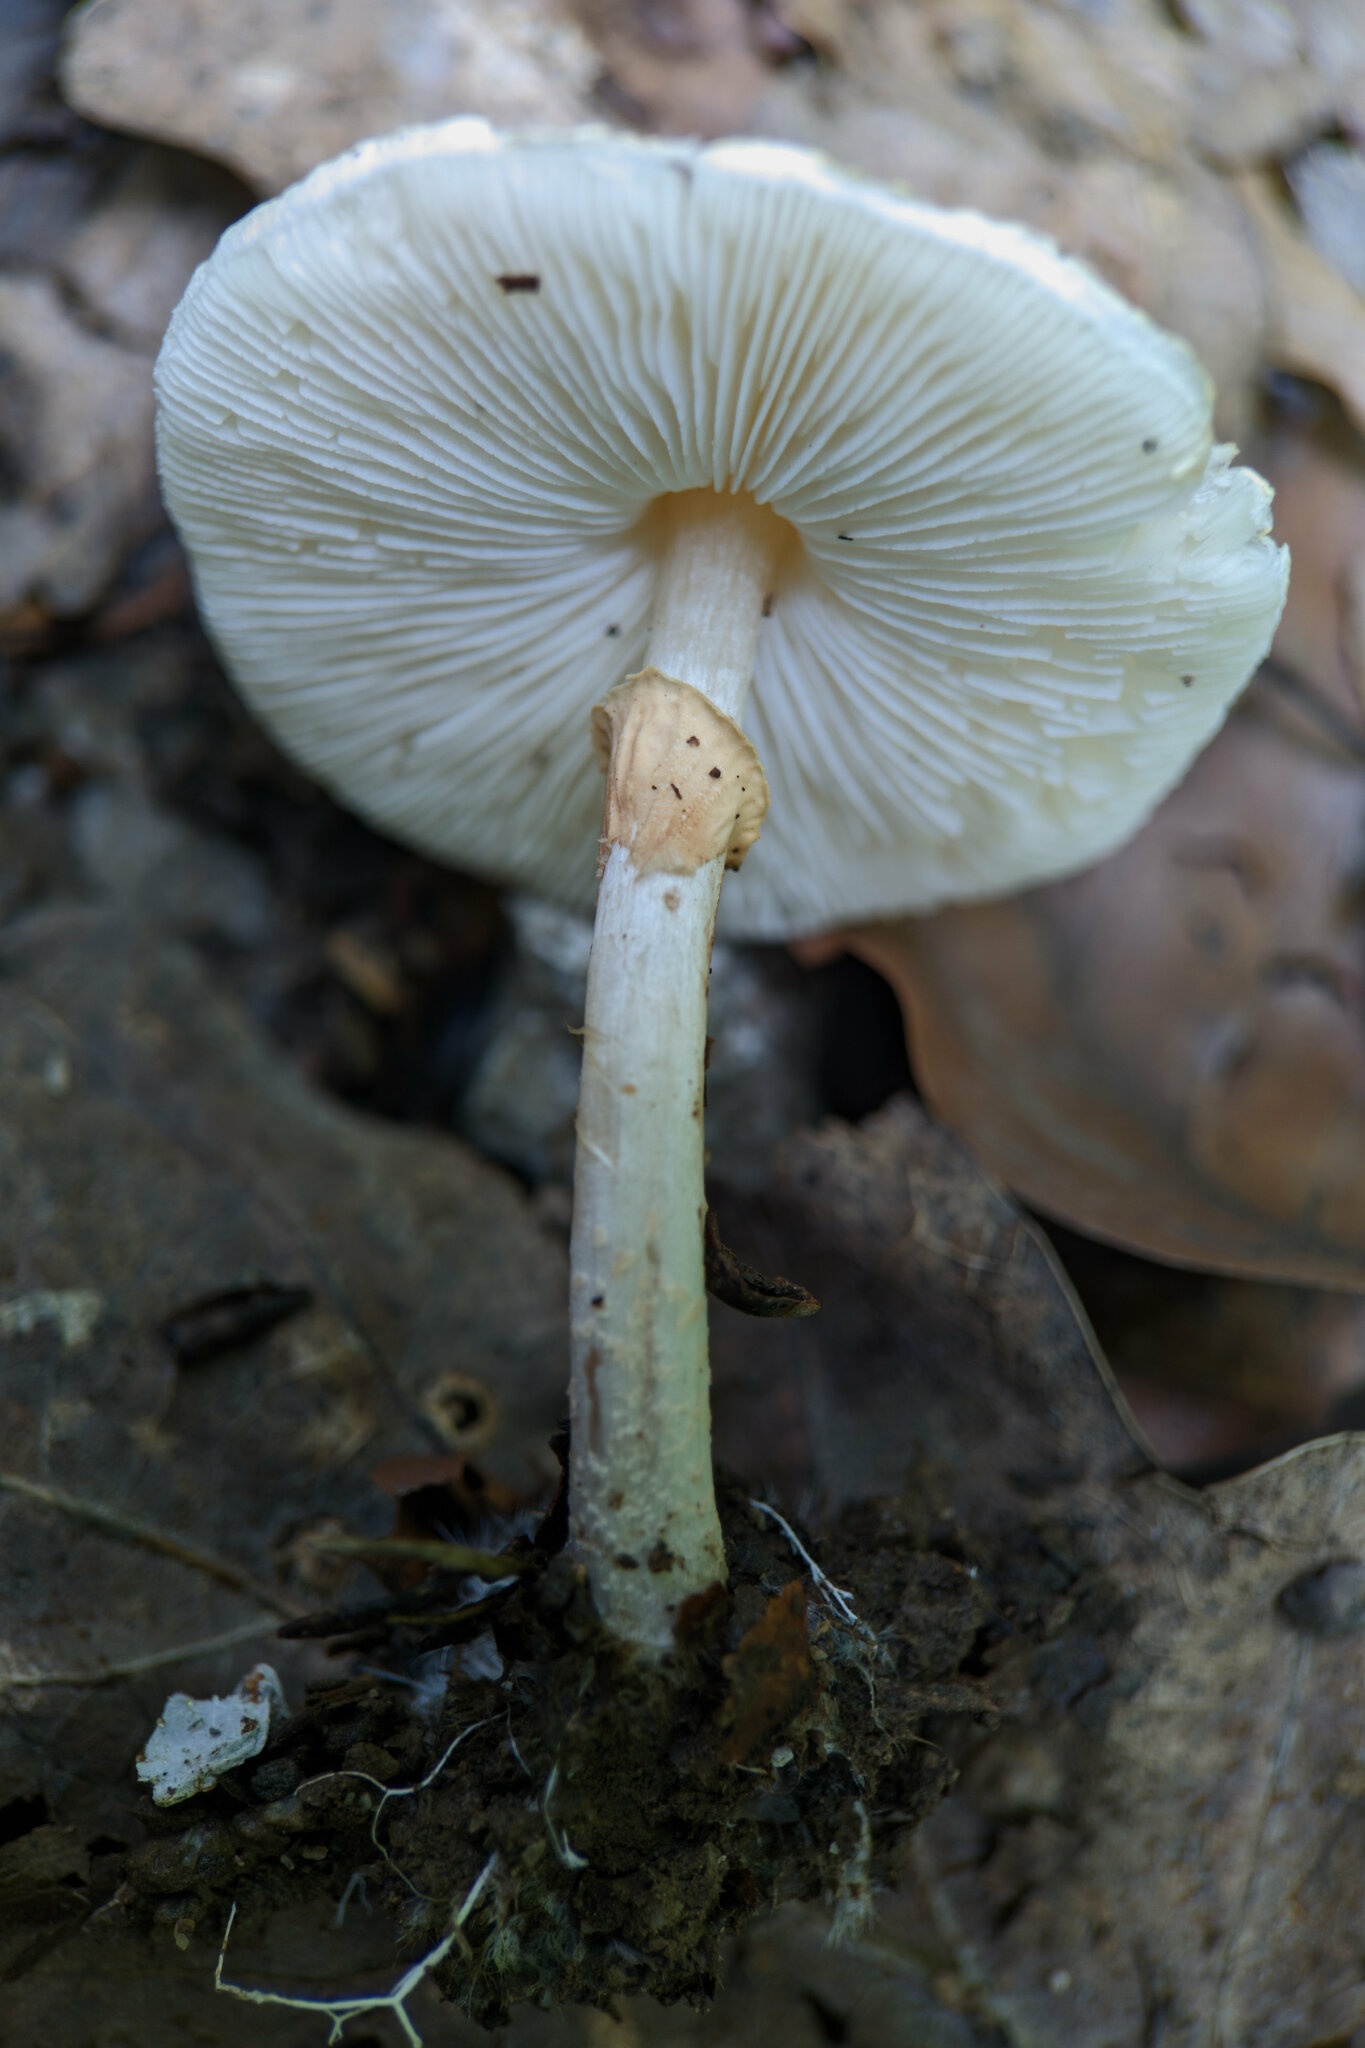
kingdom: Fungi
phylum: Basidiomycota
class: Agaricomycetes
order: Agaricales
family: Agaricaceae
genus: Lepiota
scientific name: Lepiota cristata
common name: Stinking dapperling
